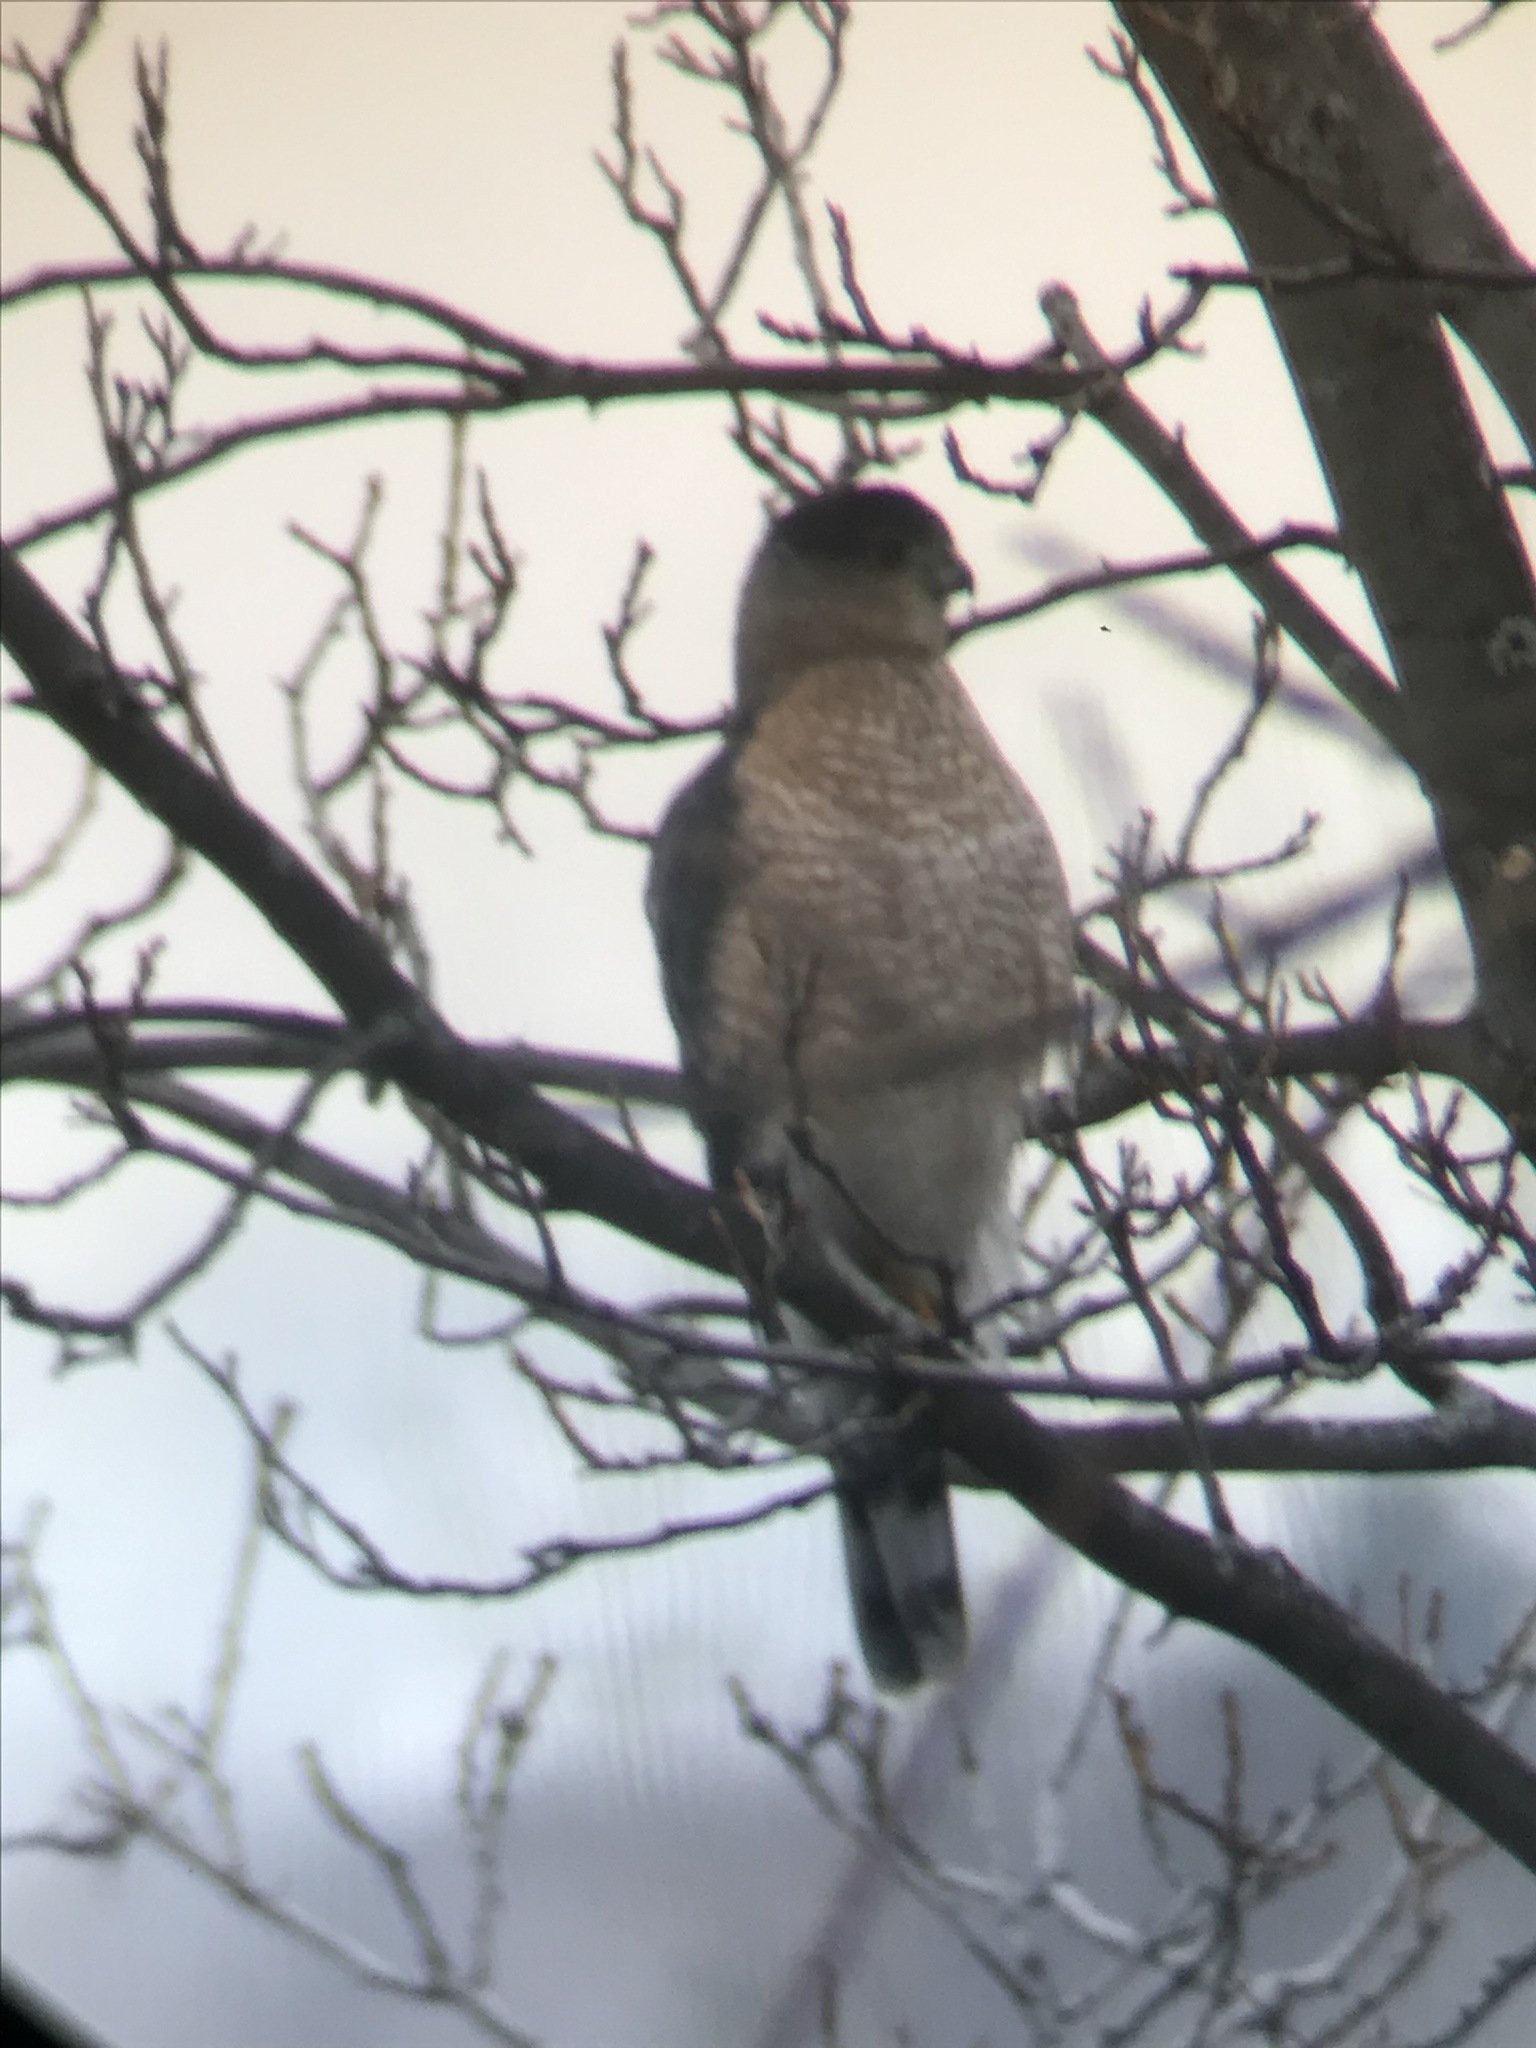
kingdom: Animalia
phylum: Chordata
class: Aves
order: Accipitriformes
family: Accipitridae
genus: Accipiter
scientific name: Accipiter cooperii
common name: Cooper's hawk
